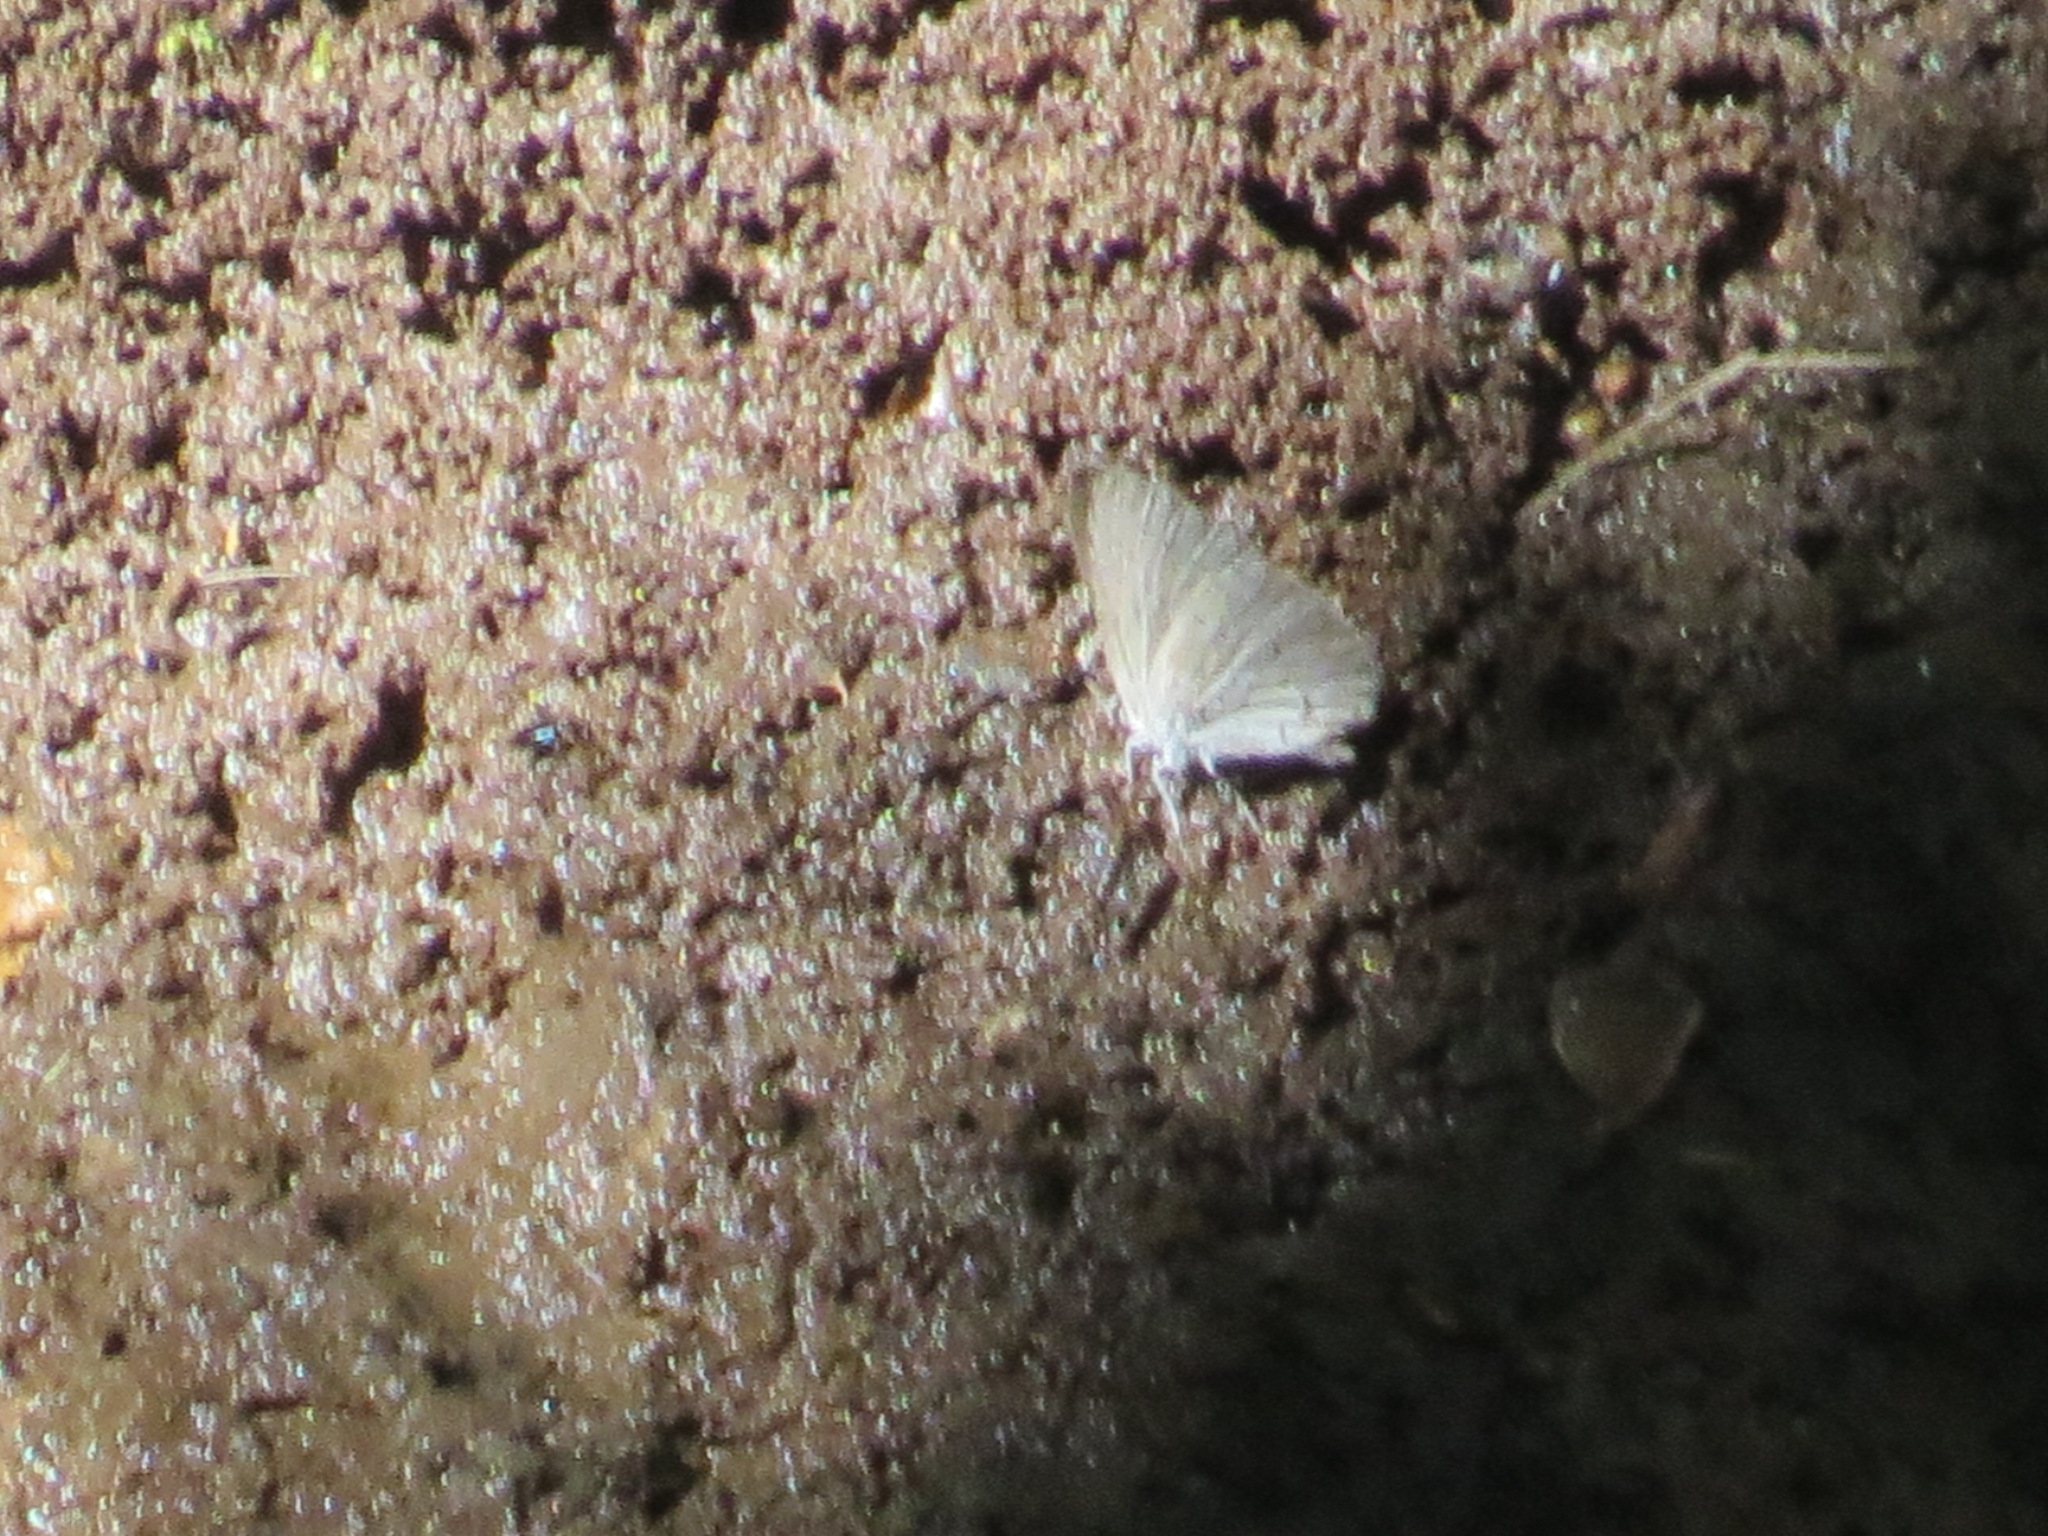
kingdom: Animalia
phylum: Arthropoda
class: Insecta
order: Lepidoptera
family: Lycaenidae
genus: Celastrina
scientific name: Celastrina ladon
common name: Spring azure
